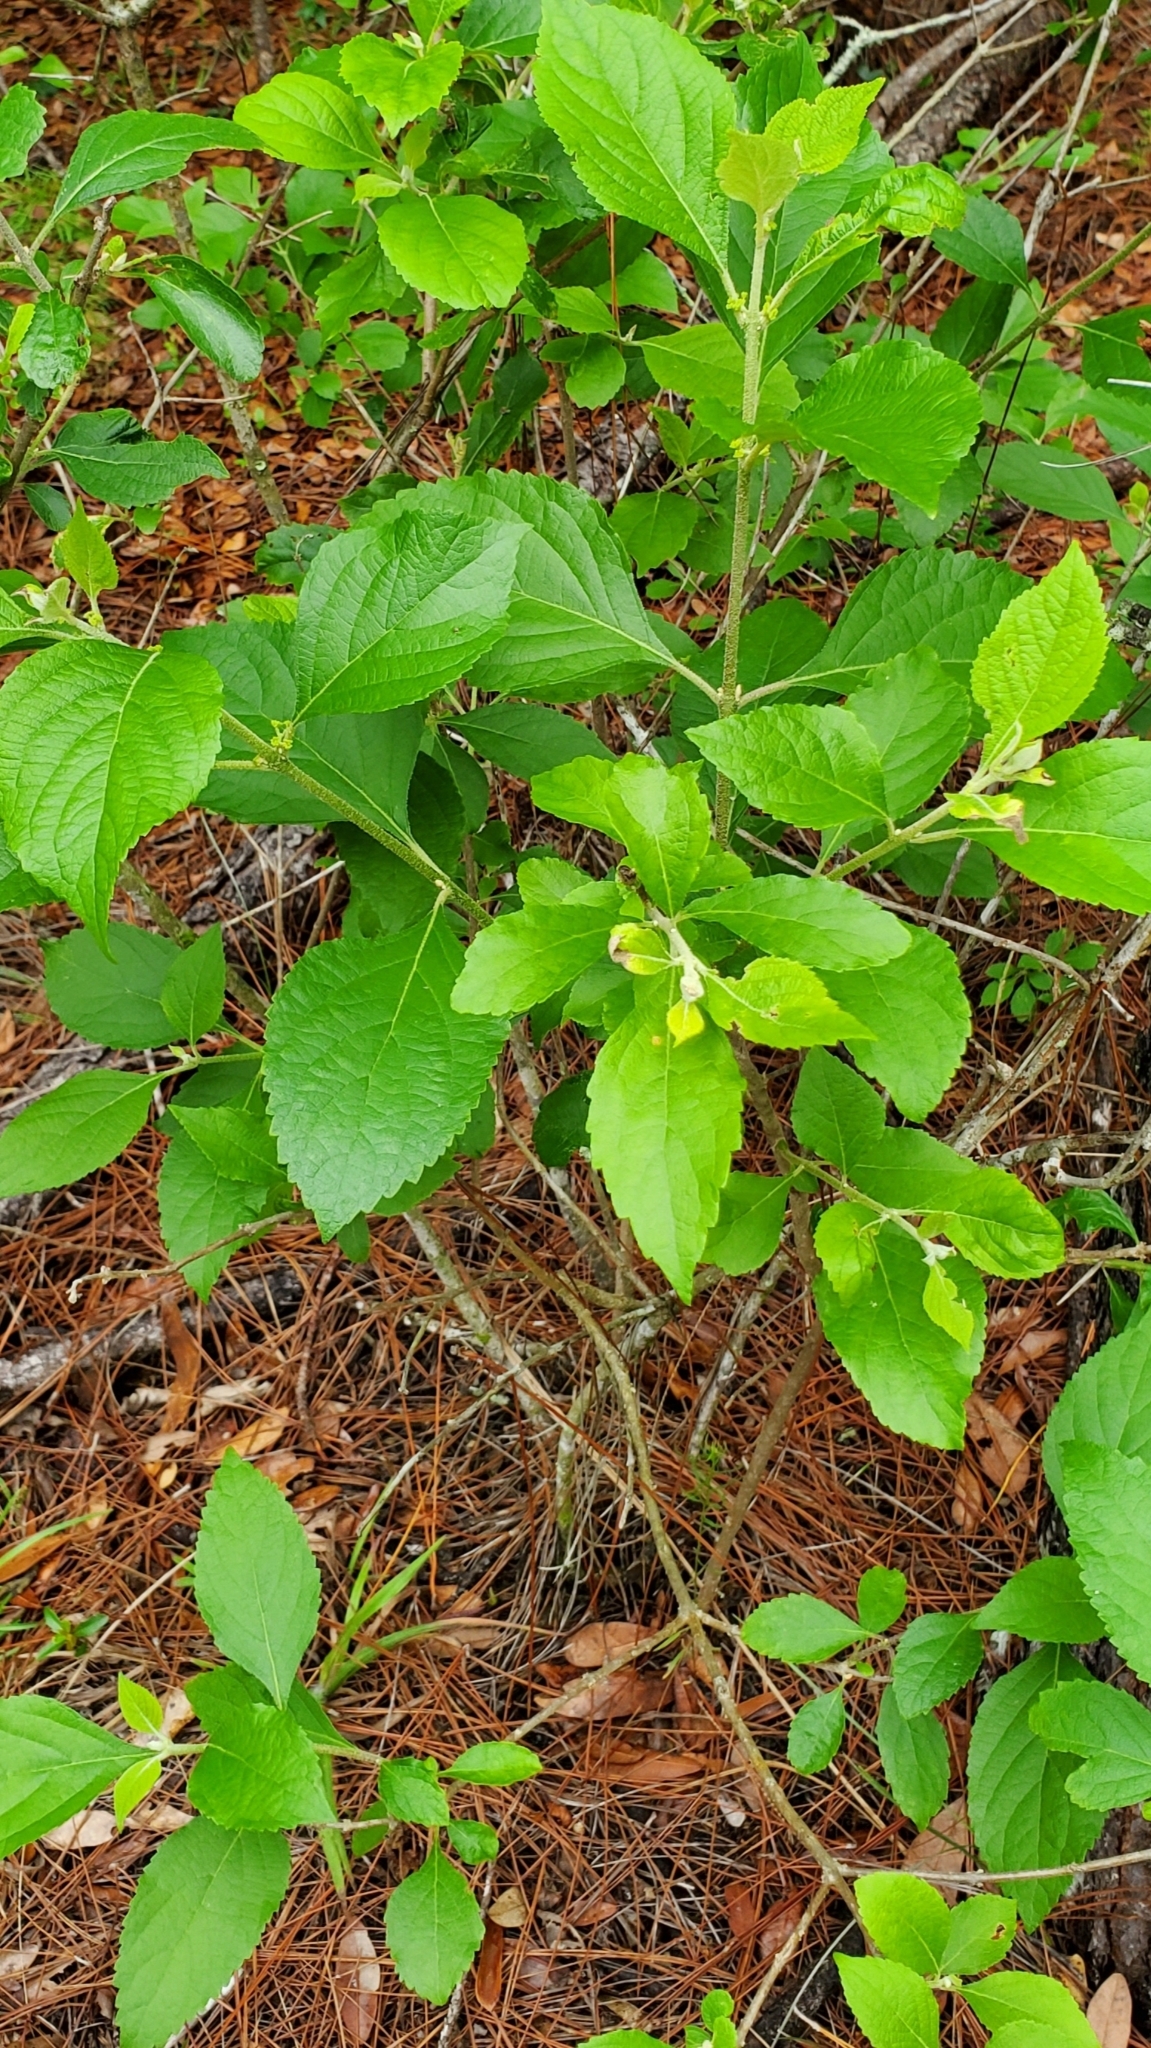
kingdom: Plantae
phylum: Tracheophyta
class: Magnoliopsida
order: Lamiales
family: Lamiaceae
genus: Callicarpa
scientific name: Callicarpa americana
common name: American beautyberry
